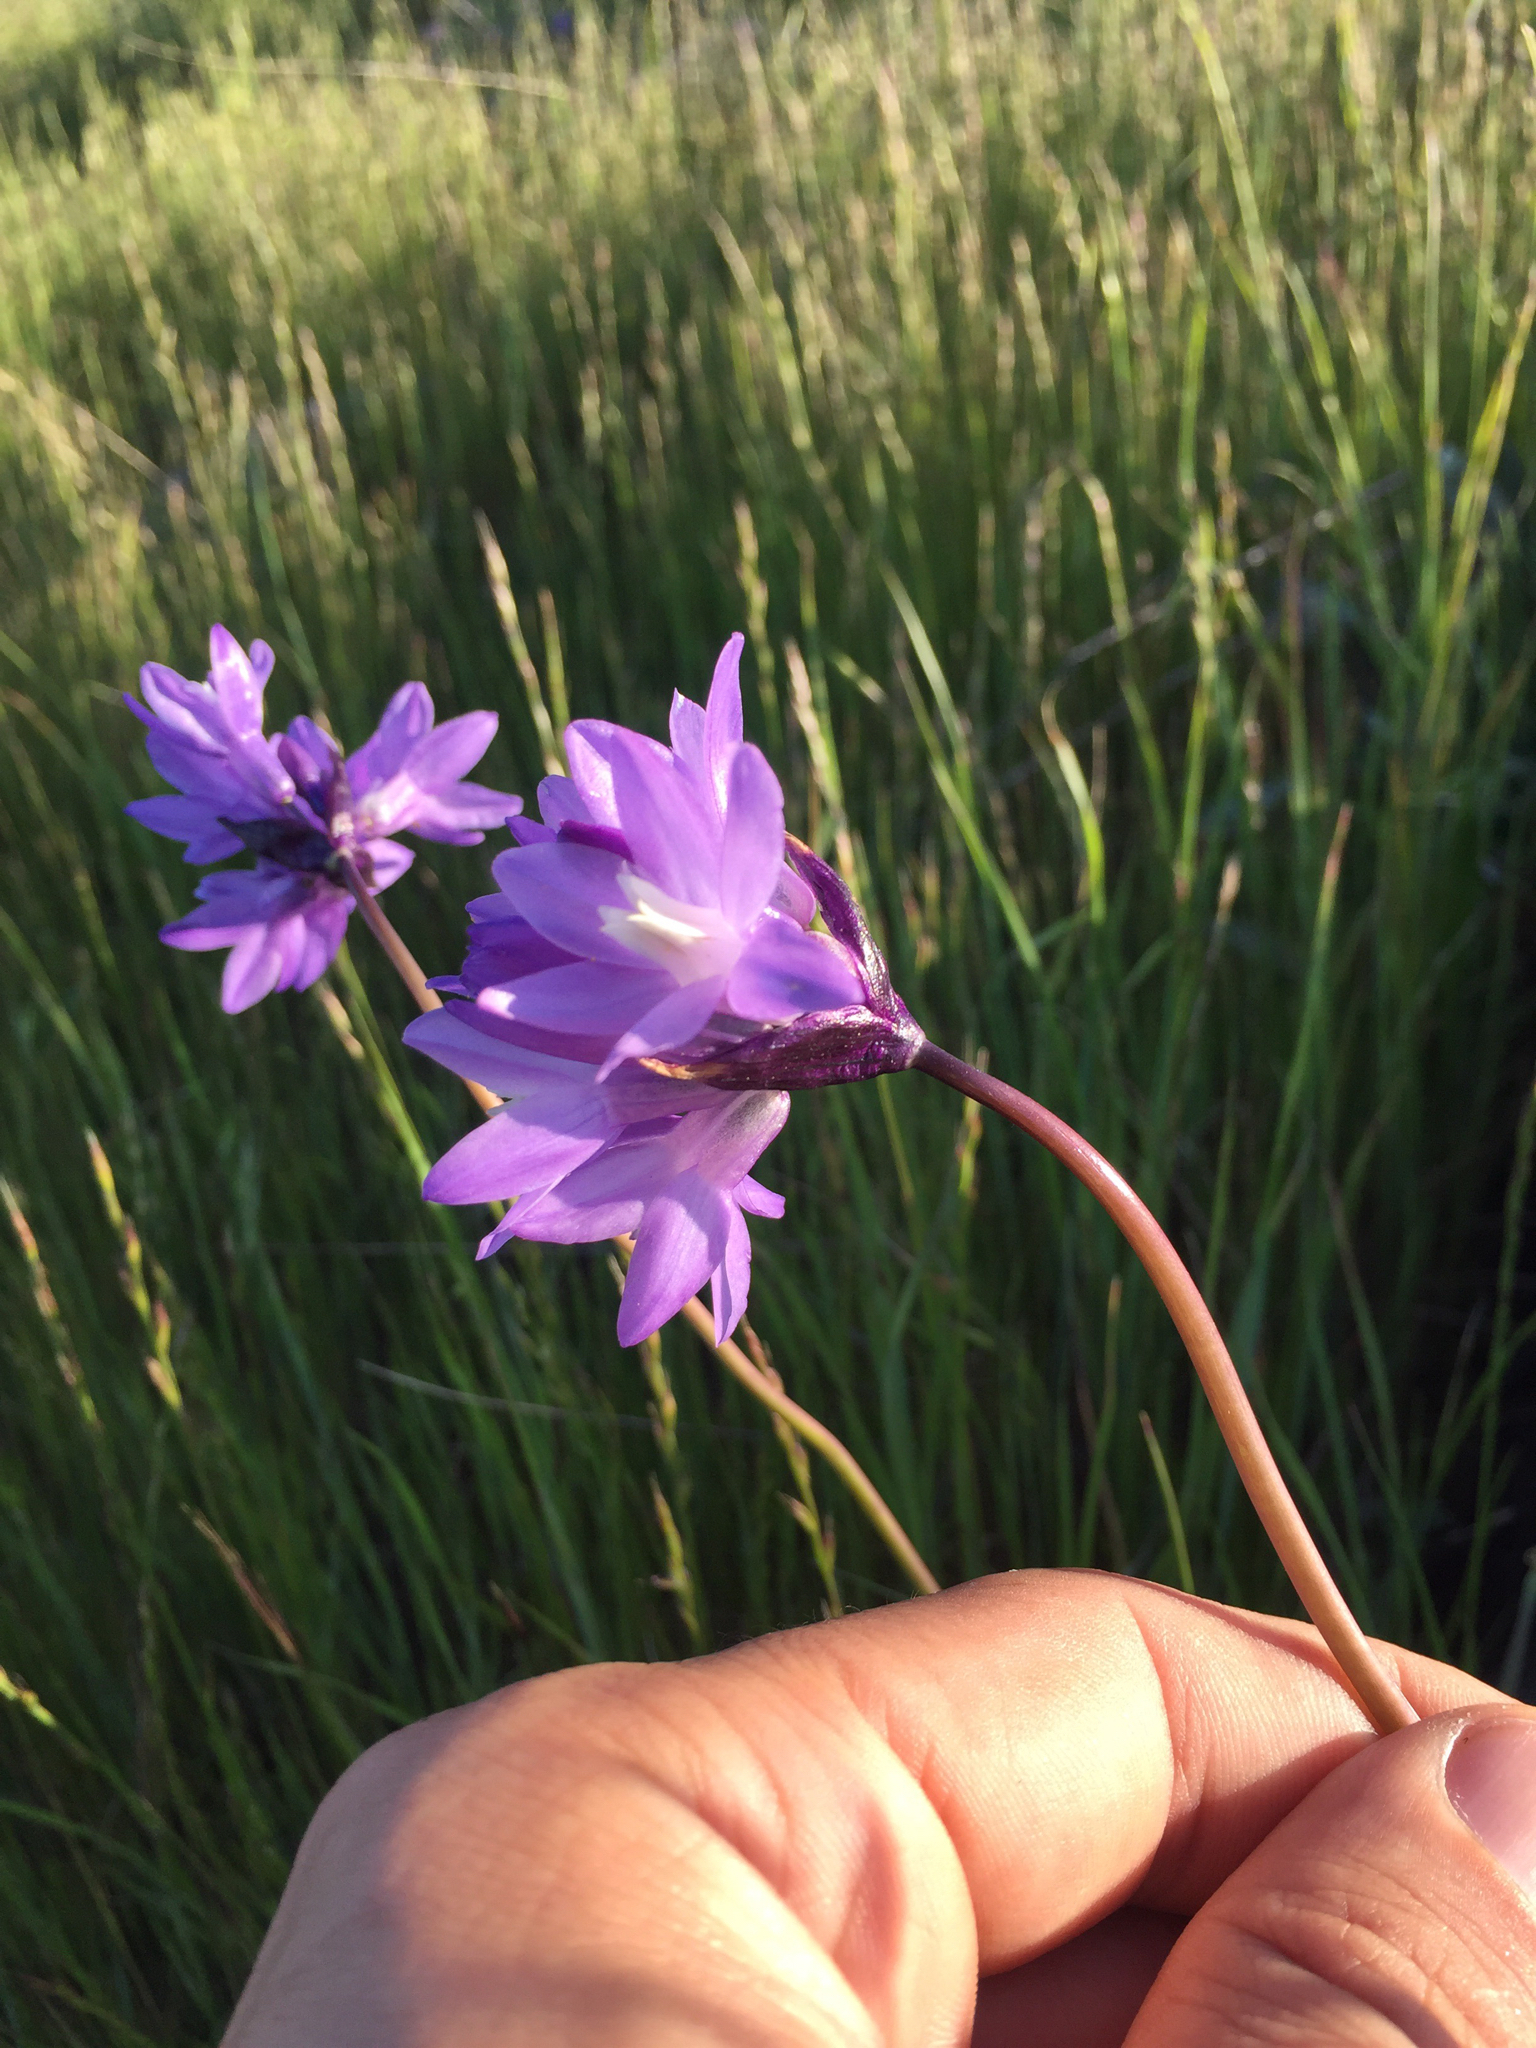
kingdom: Plantae
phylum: Tracheophyta
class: Liliopsida
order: Asparagales
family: Asparagaceae
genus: Dipterostemon
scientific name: Dipterostemon capitatus
